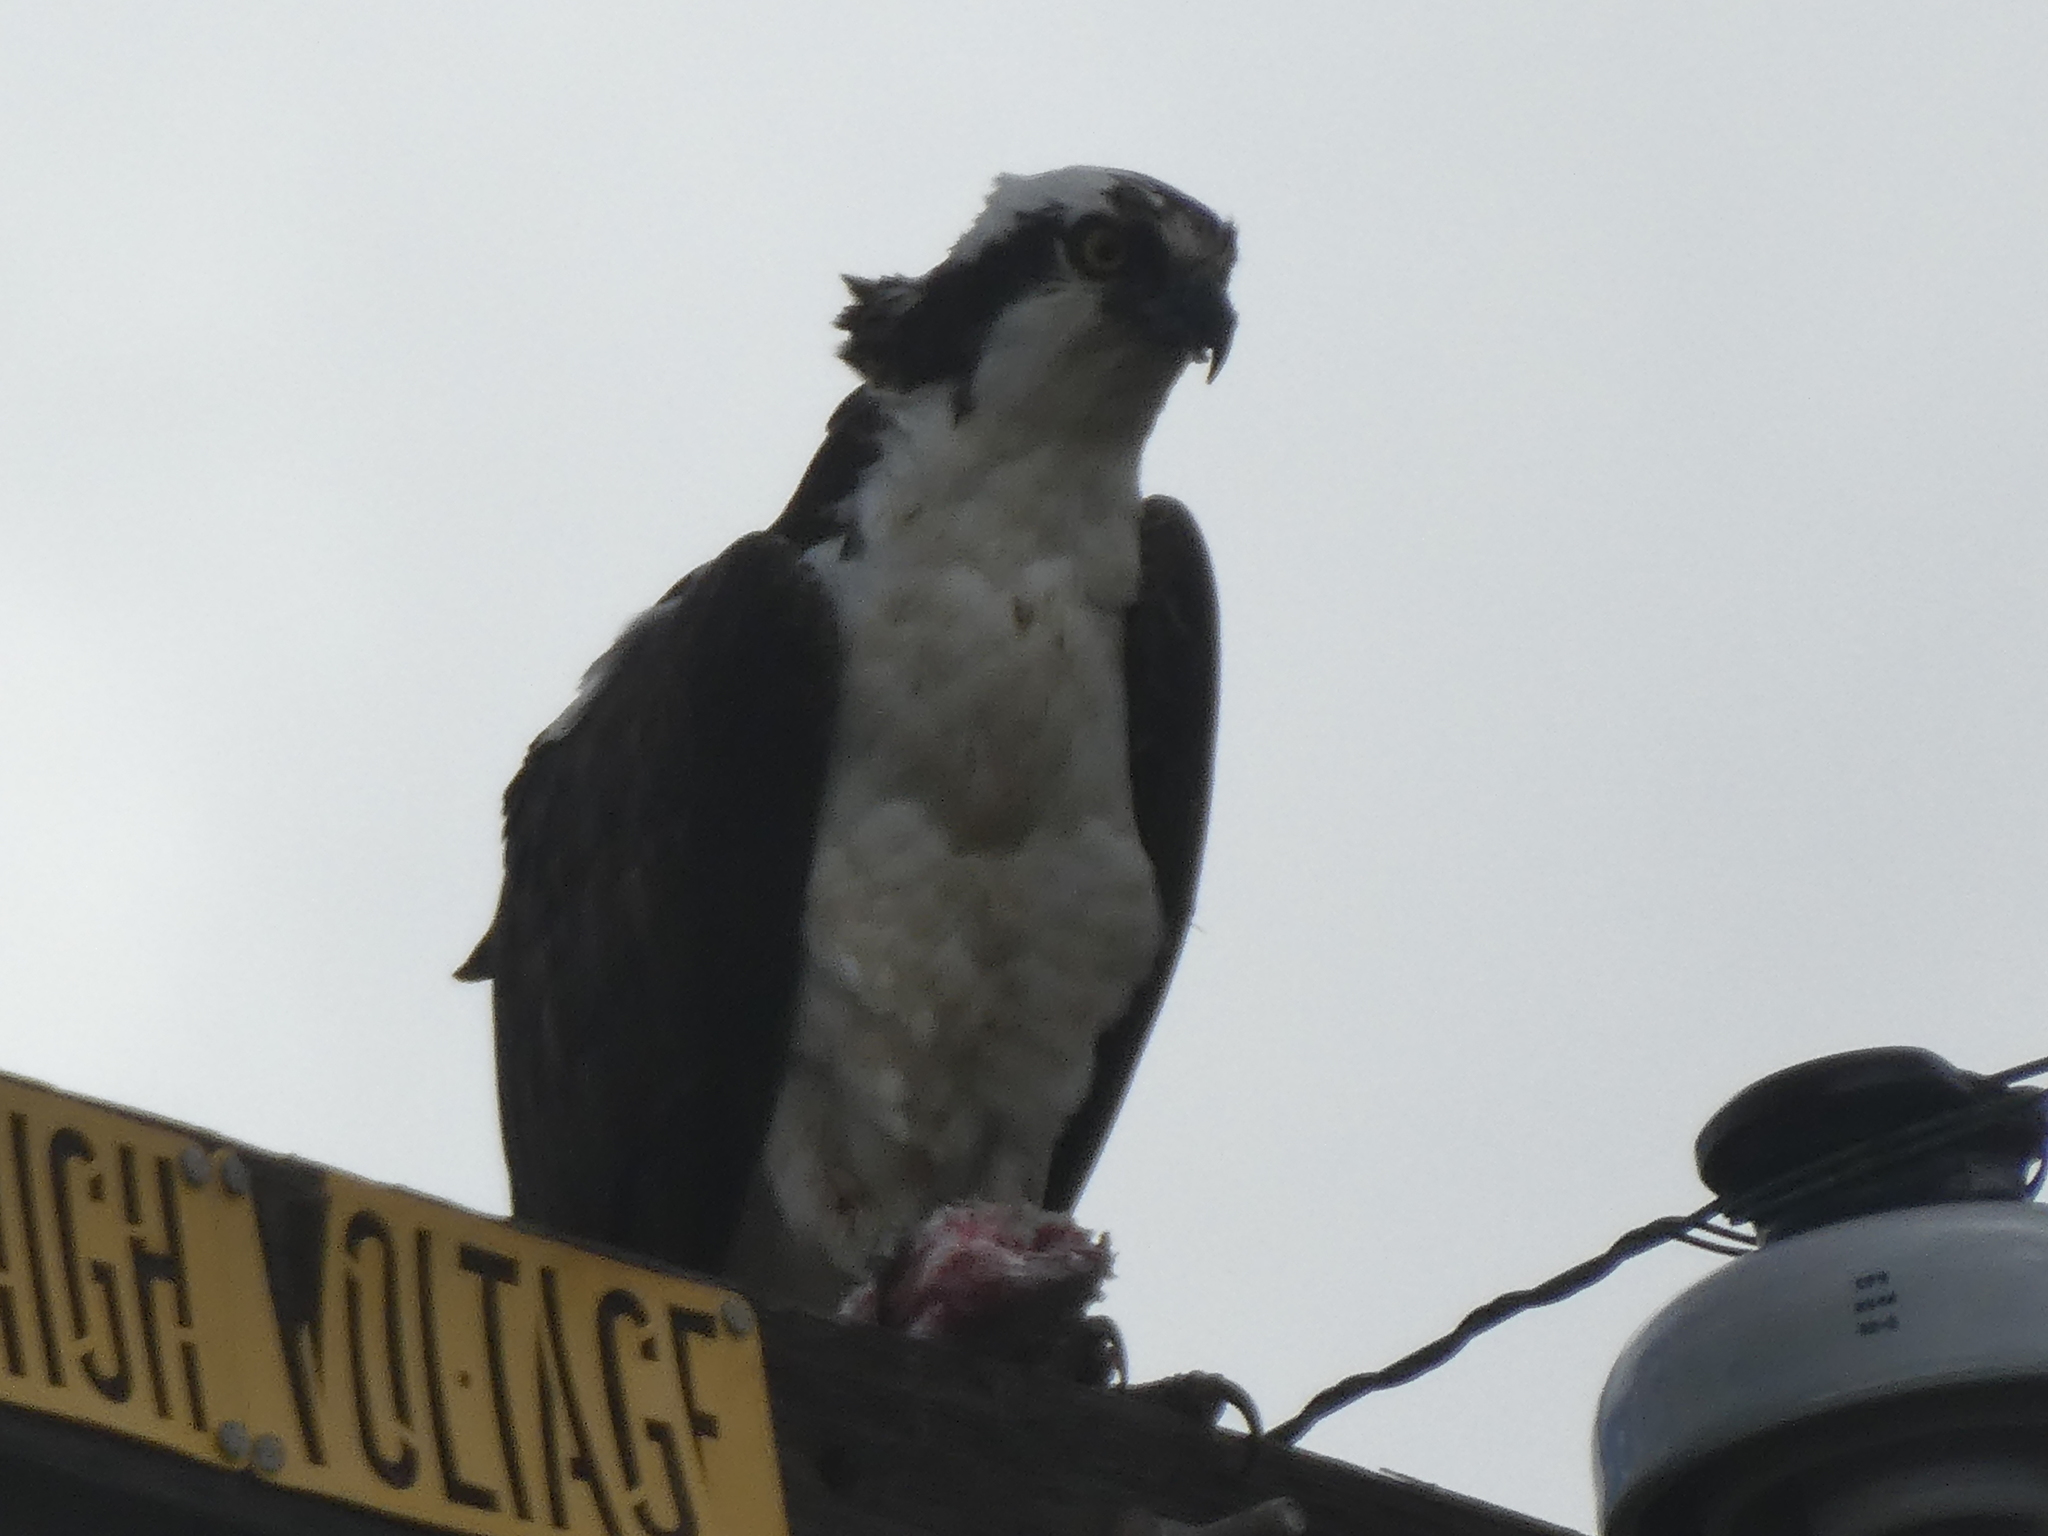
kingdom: Animalia
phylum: Chordata
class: Aves
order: Accipitriformes
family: Pandionidae
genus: Pandion
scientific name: Pandion haliaetus
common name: Osprey
